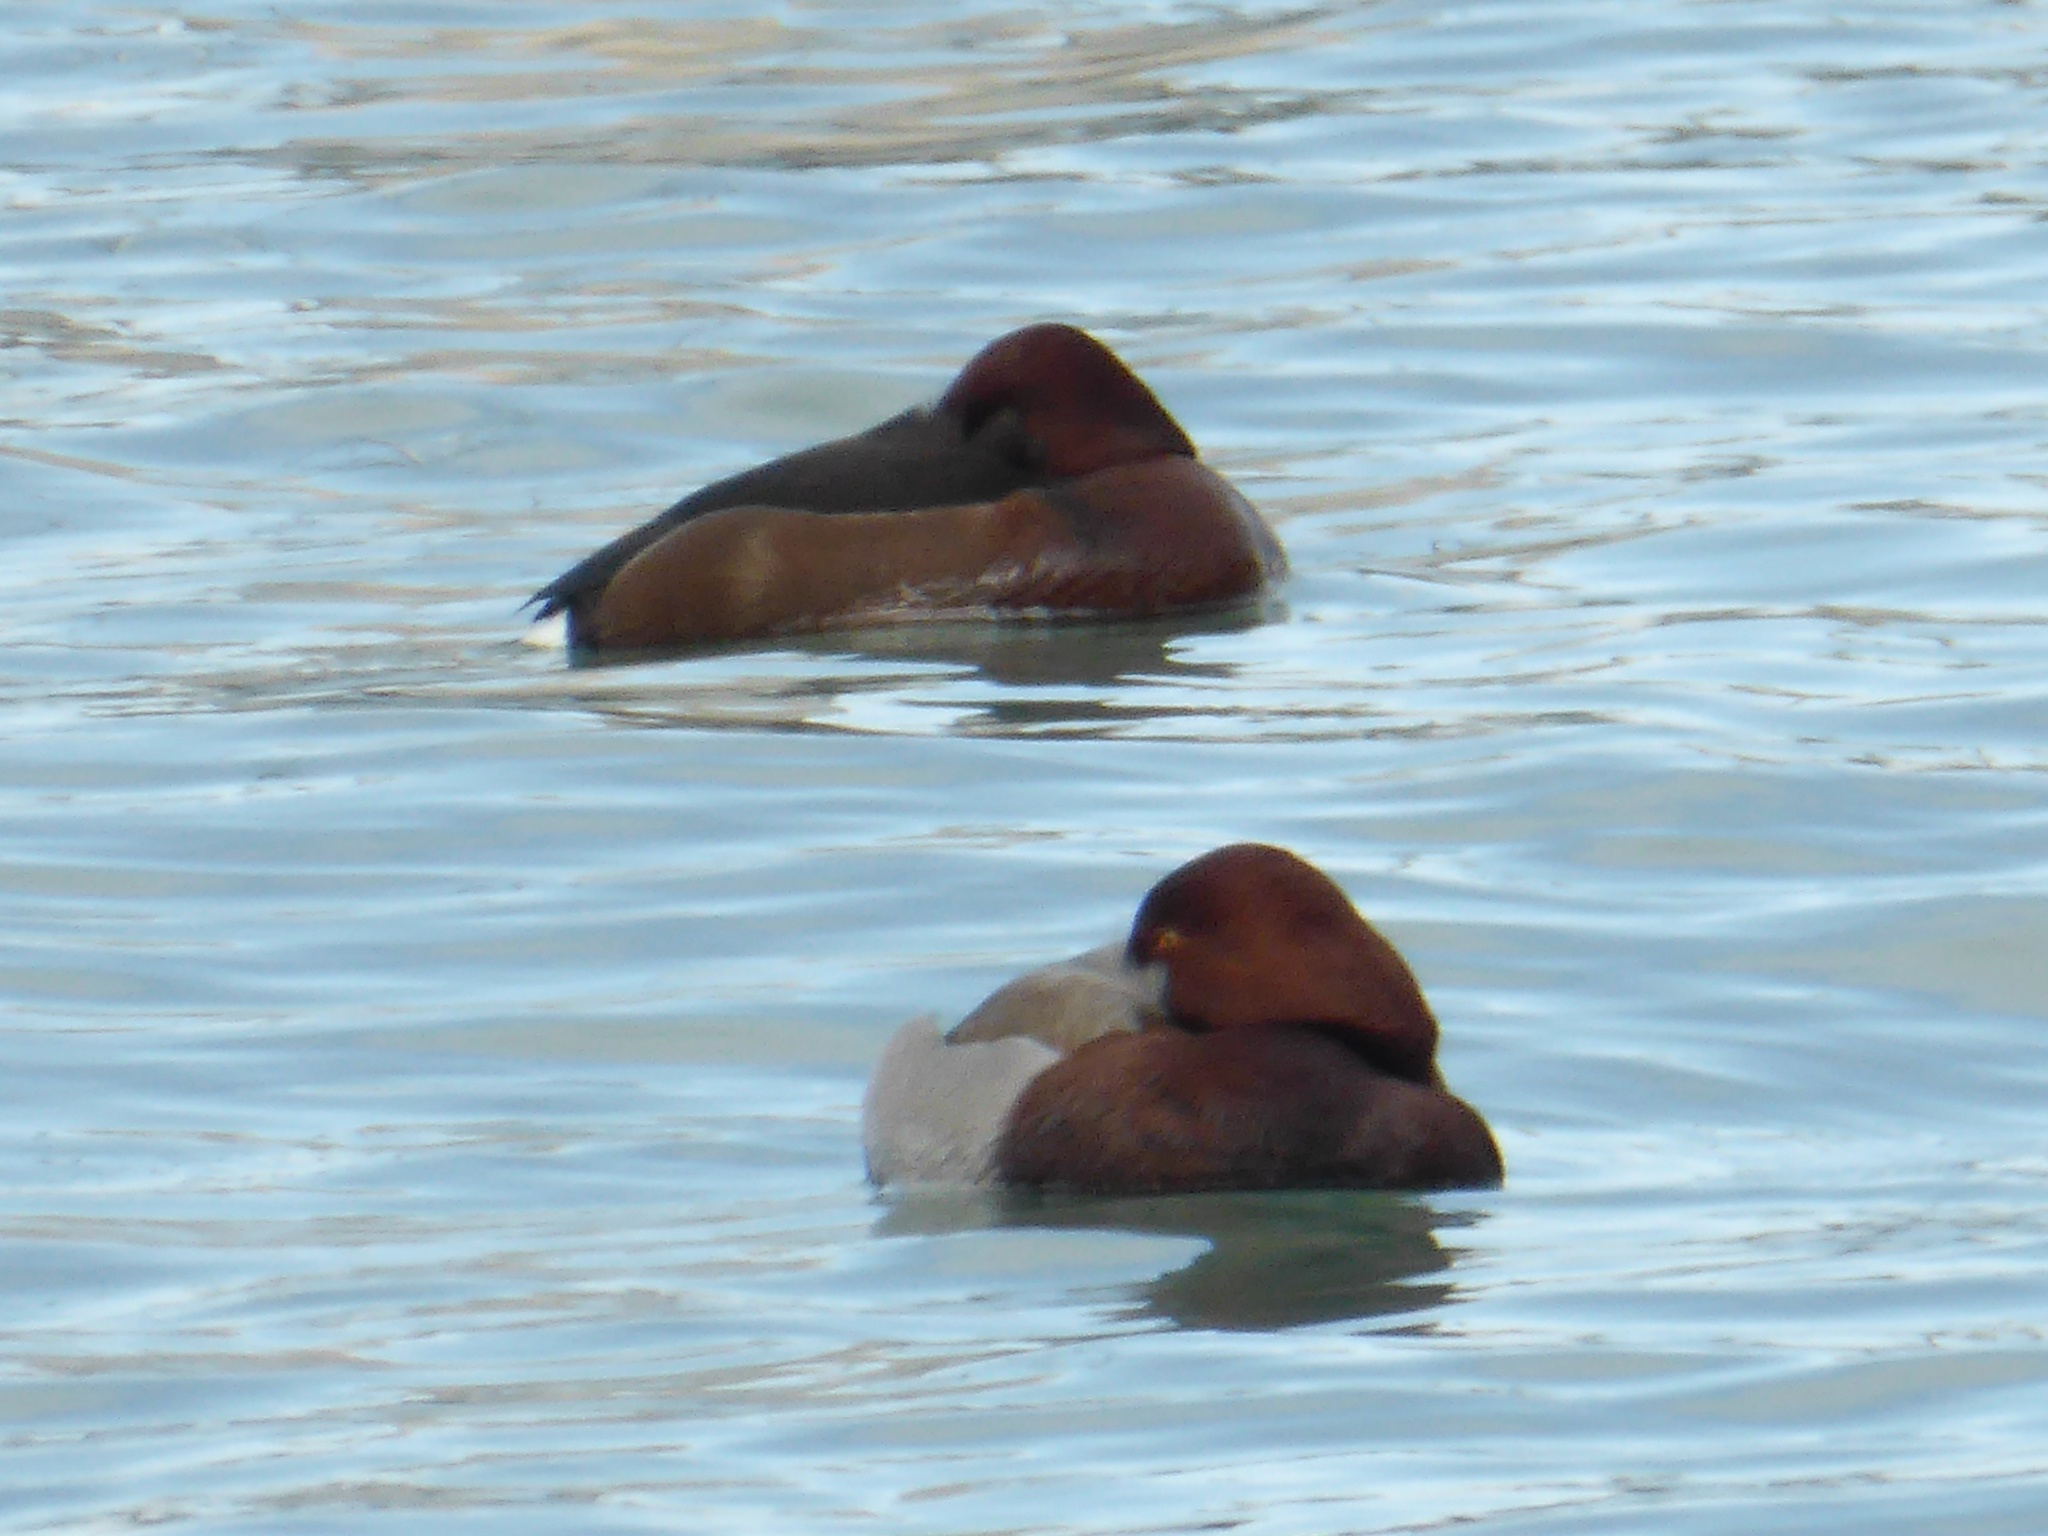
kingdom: Animalia
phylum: Chordata
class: Aves
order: Anseriformes
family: Anatidae
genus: Aythya
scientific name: Aythya
